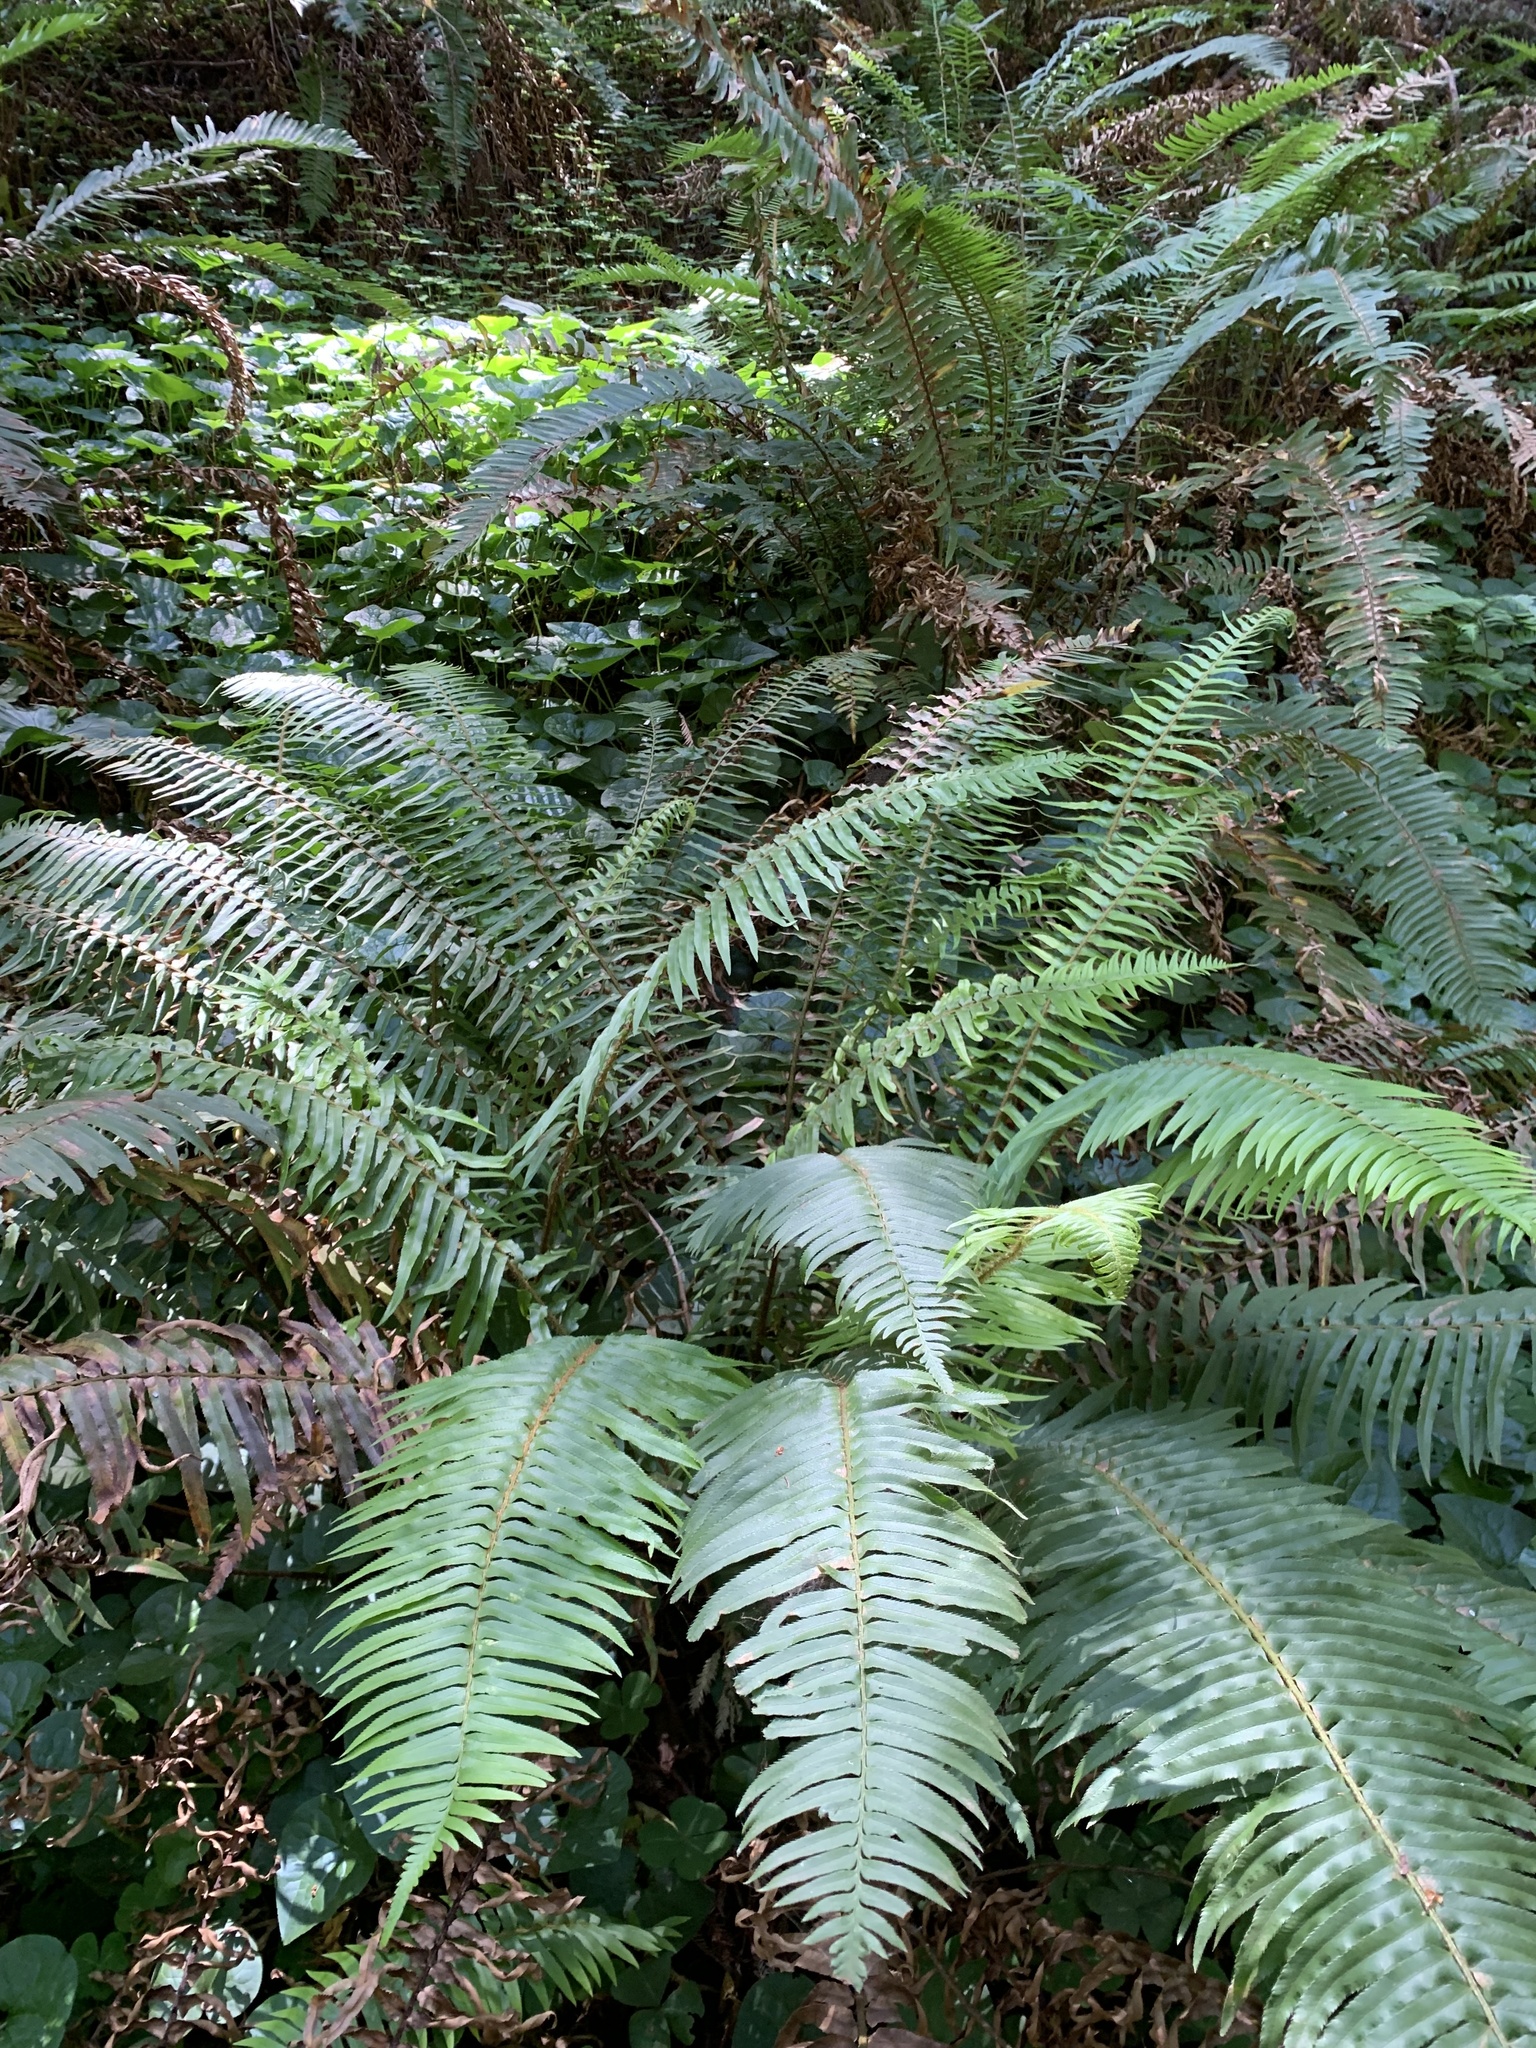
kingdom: Plantae
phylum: Tracheophyta
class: Polypodiopsida
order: Polypodiales
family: Dryopteridaceae
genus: Polystichum
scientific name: Polystichum munitum
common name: Western sword-fern
